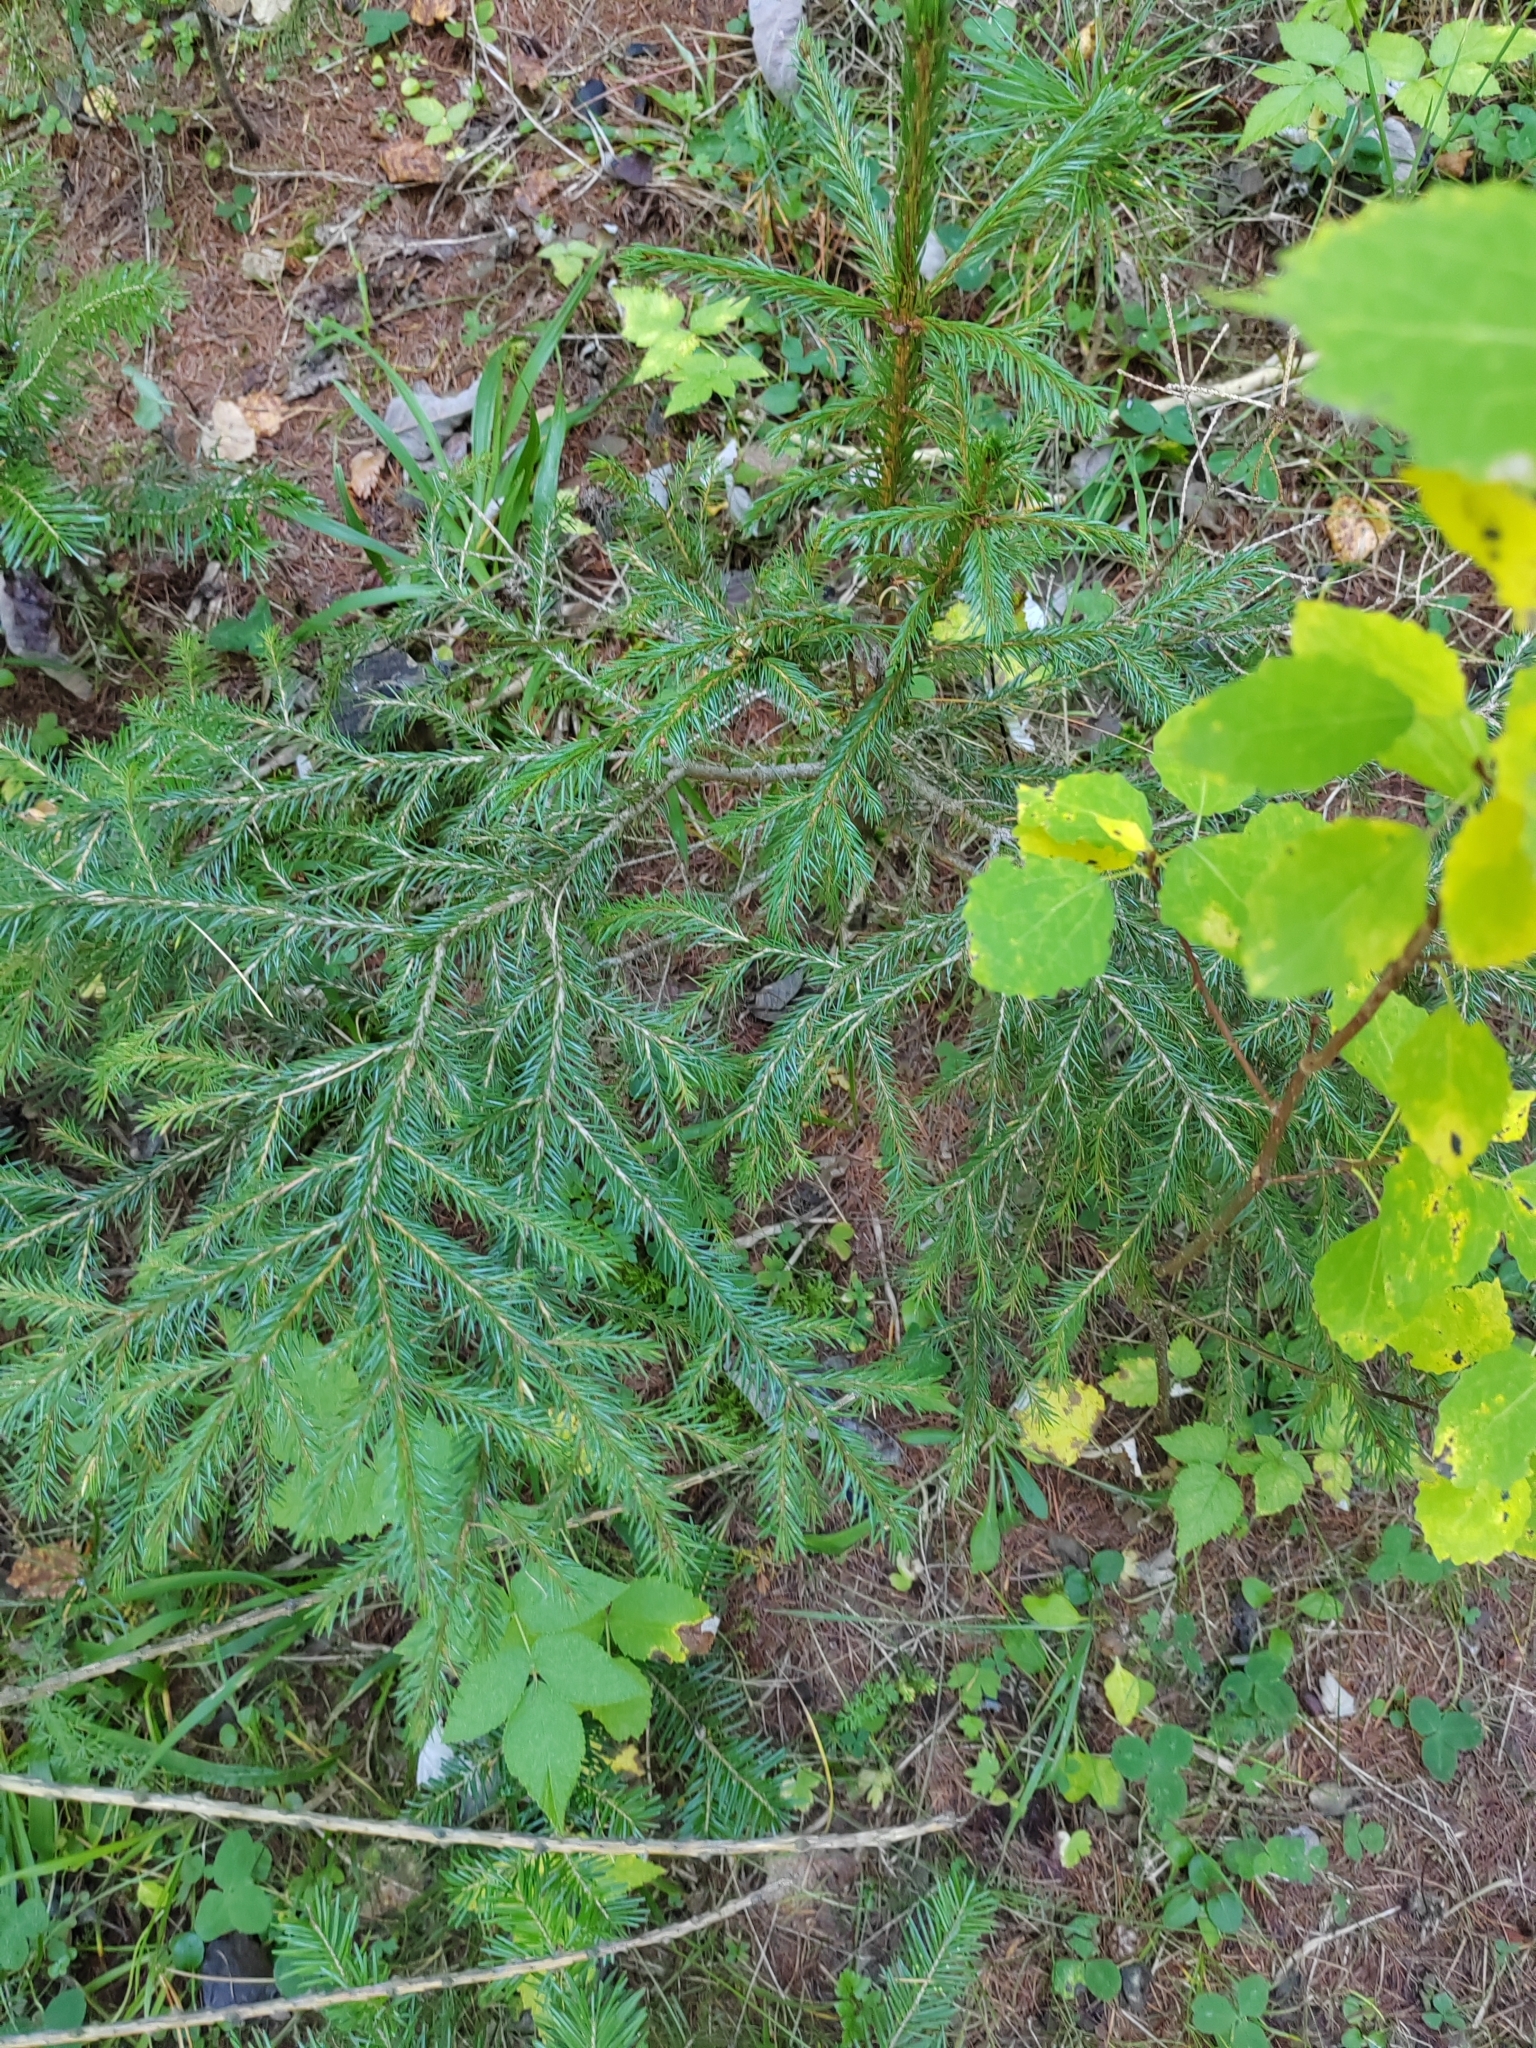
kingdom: Plantae
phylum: Tracheophyta
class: Pinopsida
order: Pinales
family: Pinaceae
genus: Picea
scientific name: Picea obovata
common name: Siberian spruce
